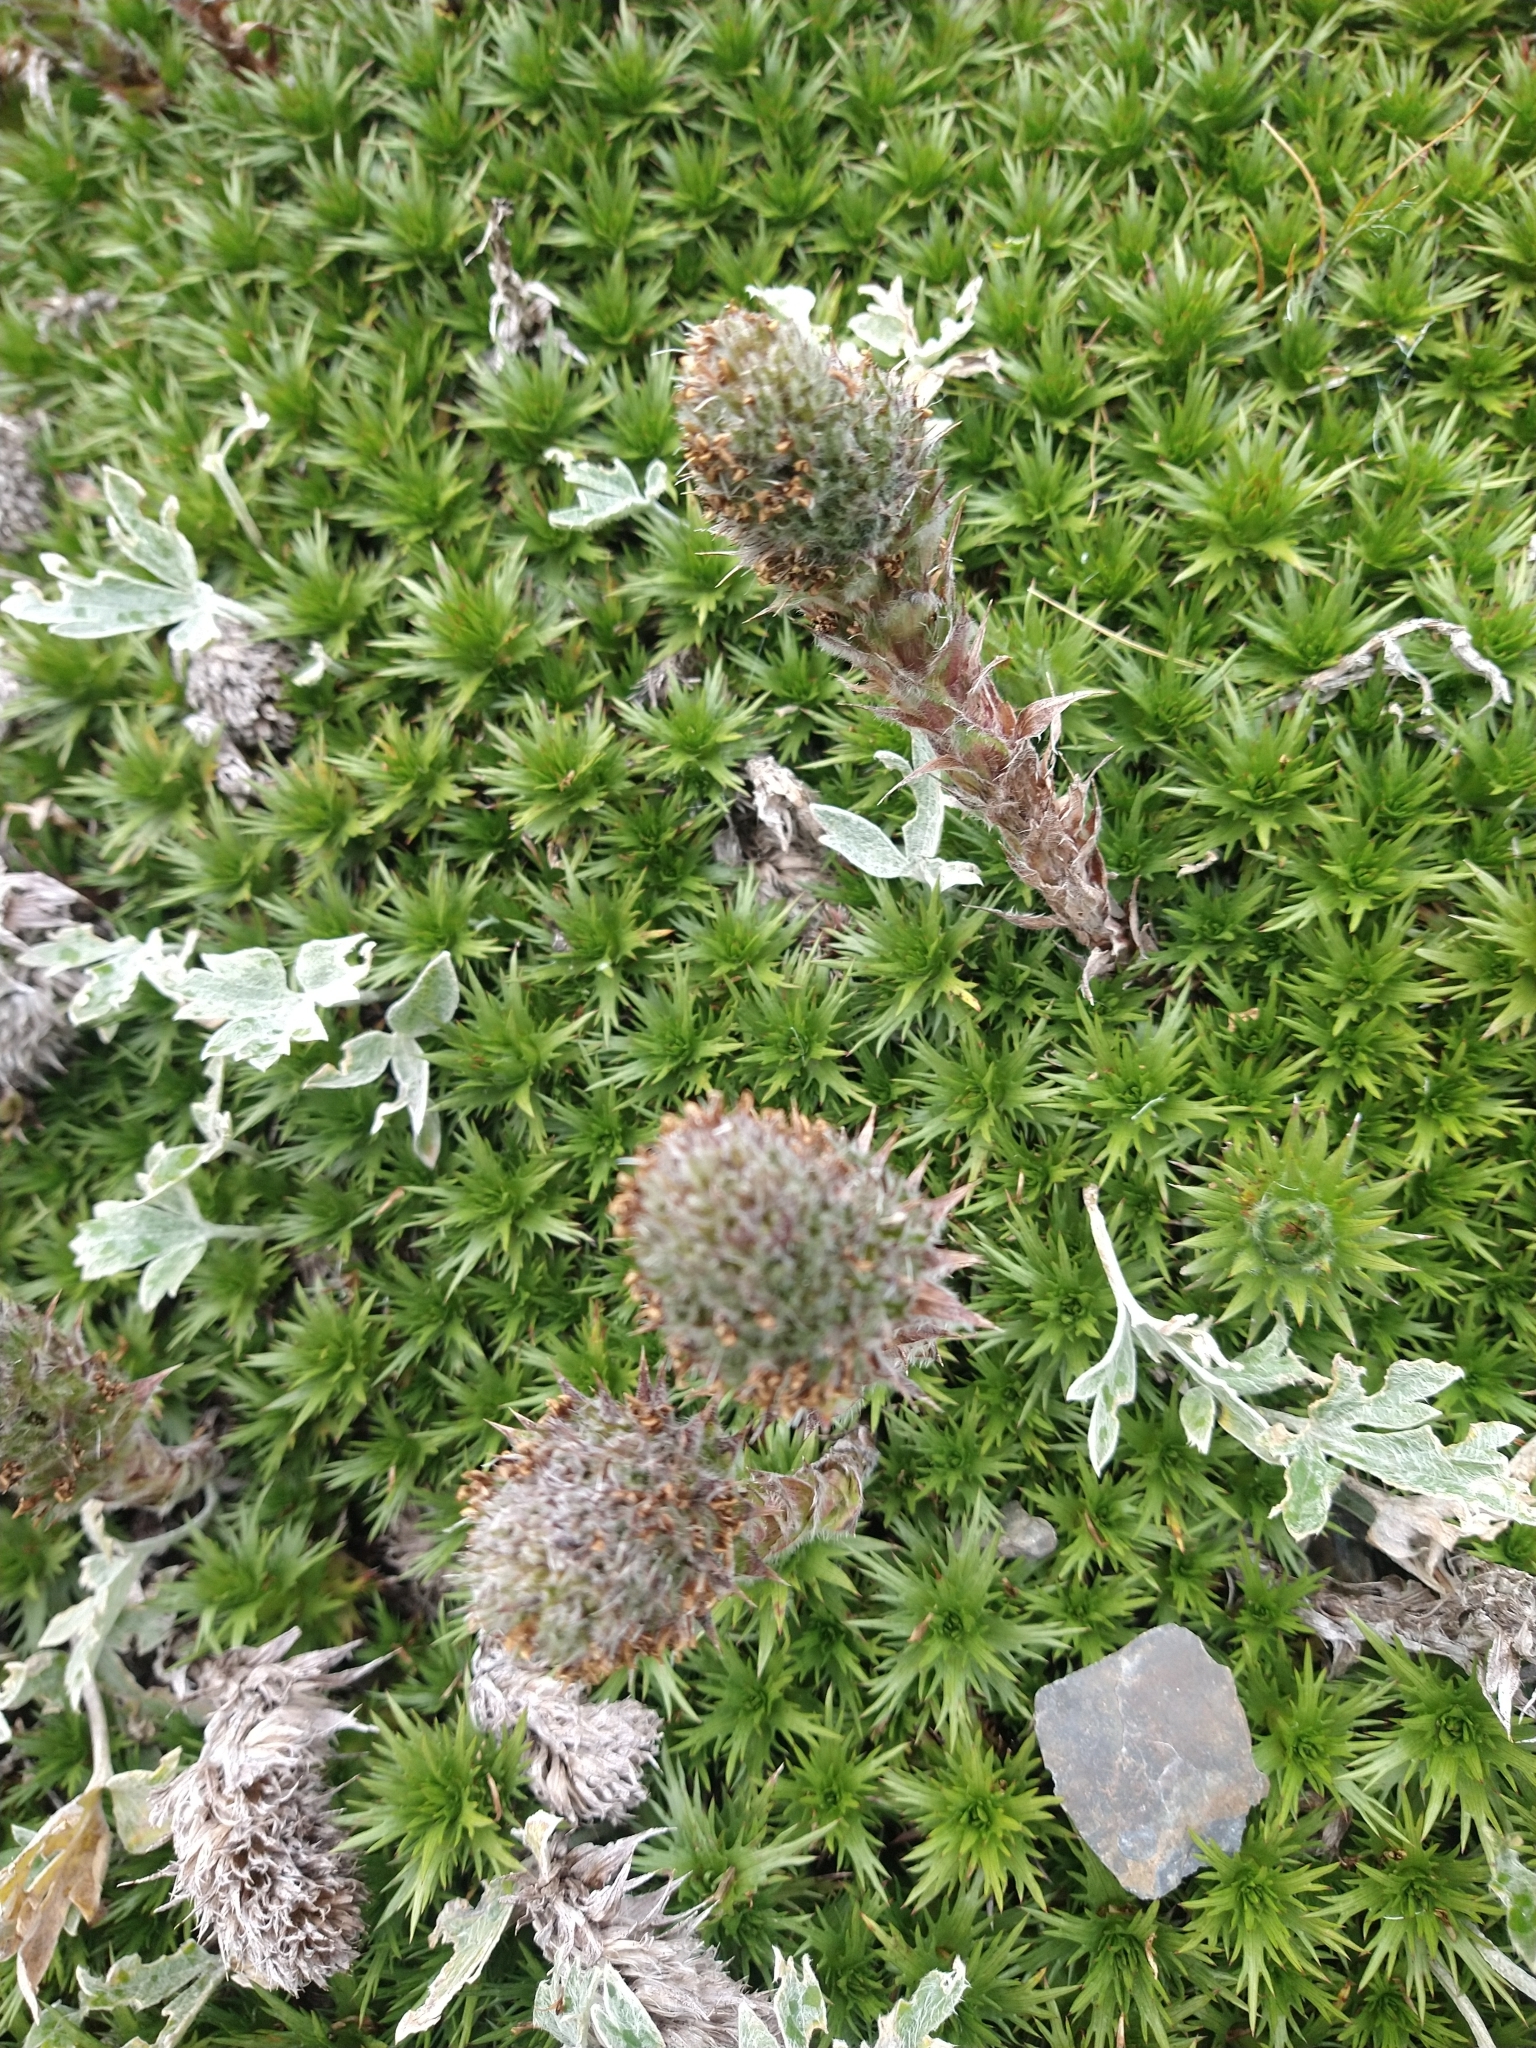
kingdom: Plantae
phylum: Tracheophyta
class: Magnoliopsida
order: Asterales
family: Asteraceae
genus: Nassauvia
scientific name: Nassauvia magellanica
